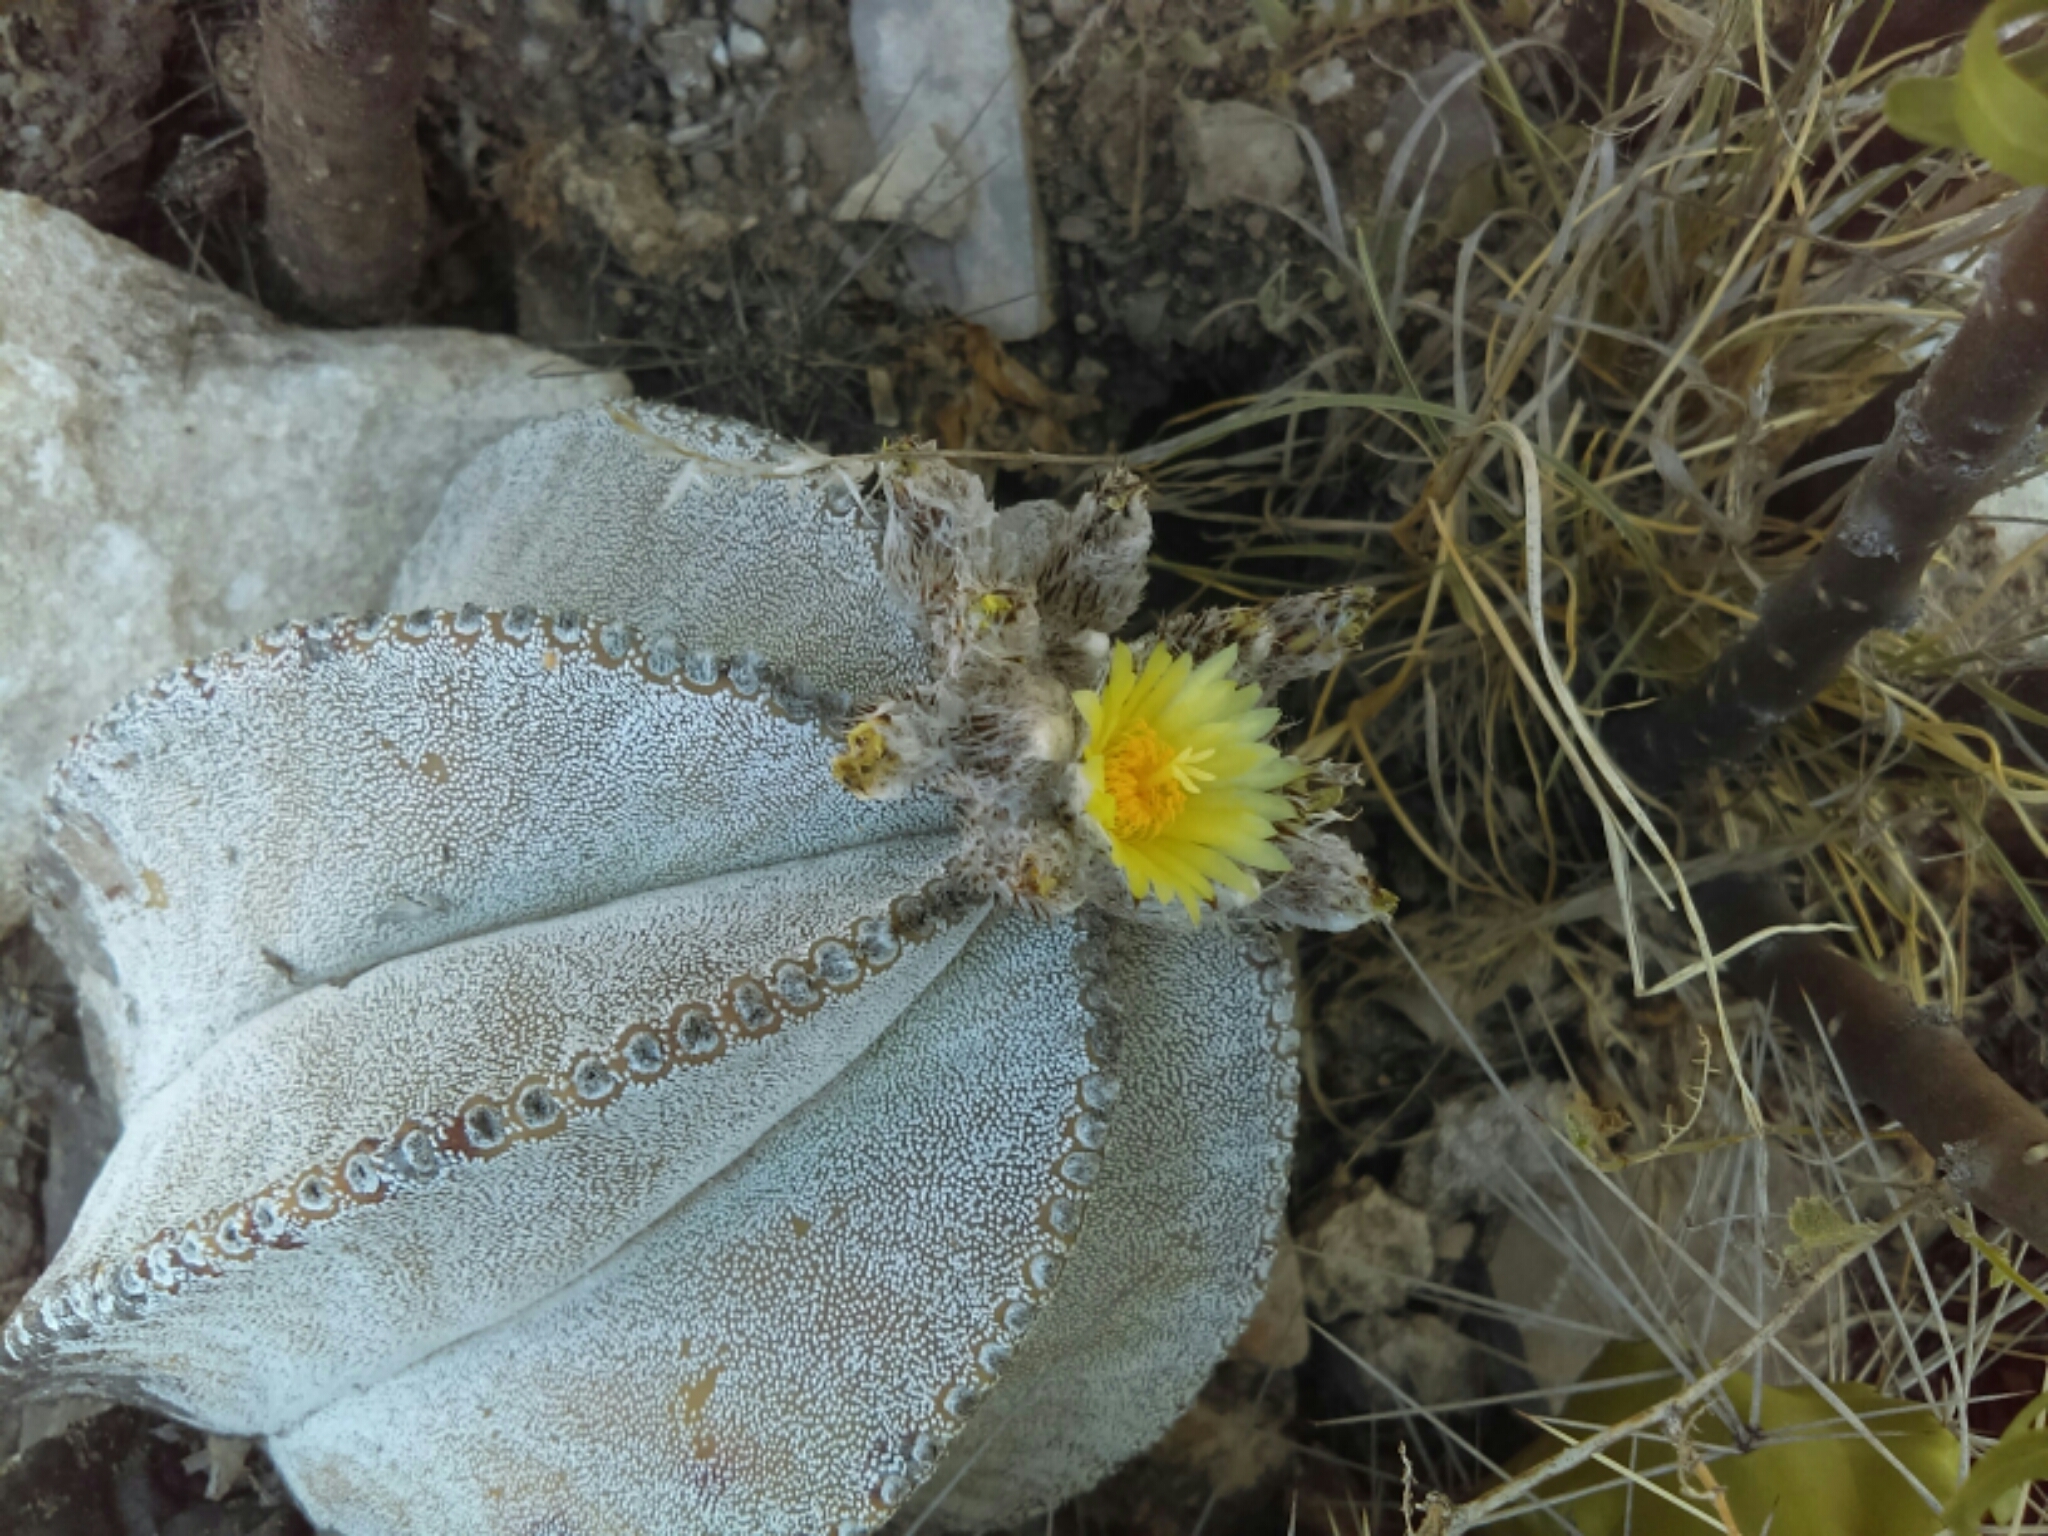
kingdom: Plantae
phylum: Tracheophyta
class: Magnoliopsida
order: Caryophyllales
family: Cactaceae
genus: Astrophytum
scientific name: Astrophytum myriostigma
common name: Bishop's-cap
